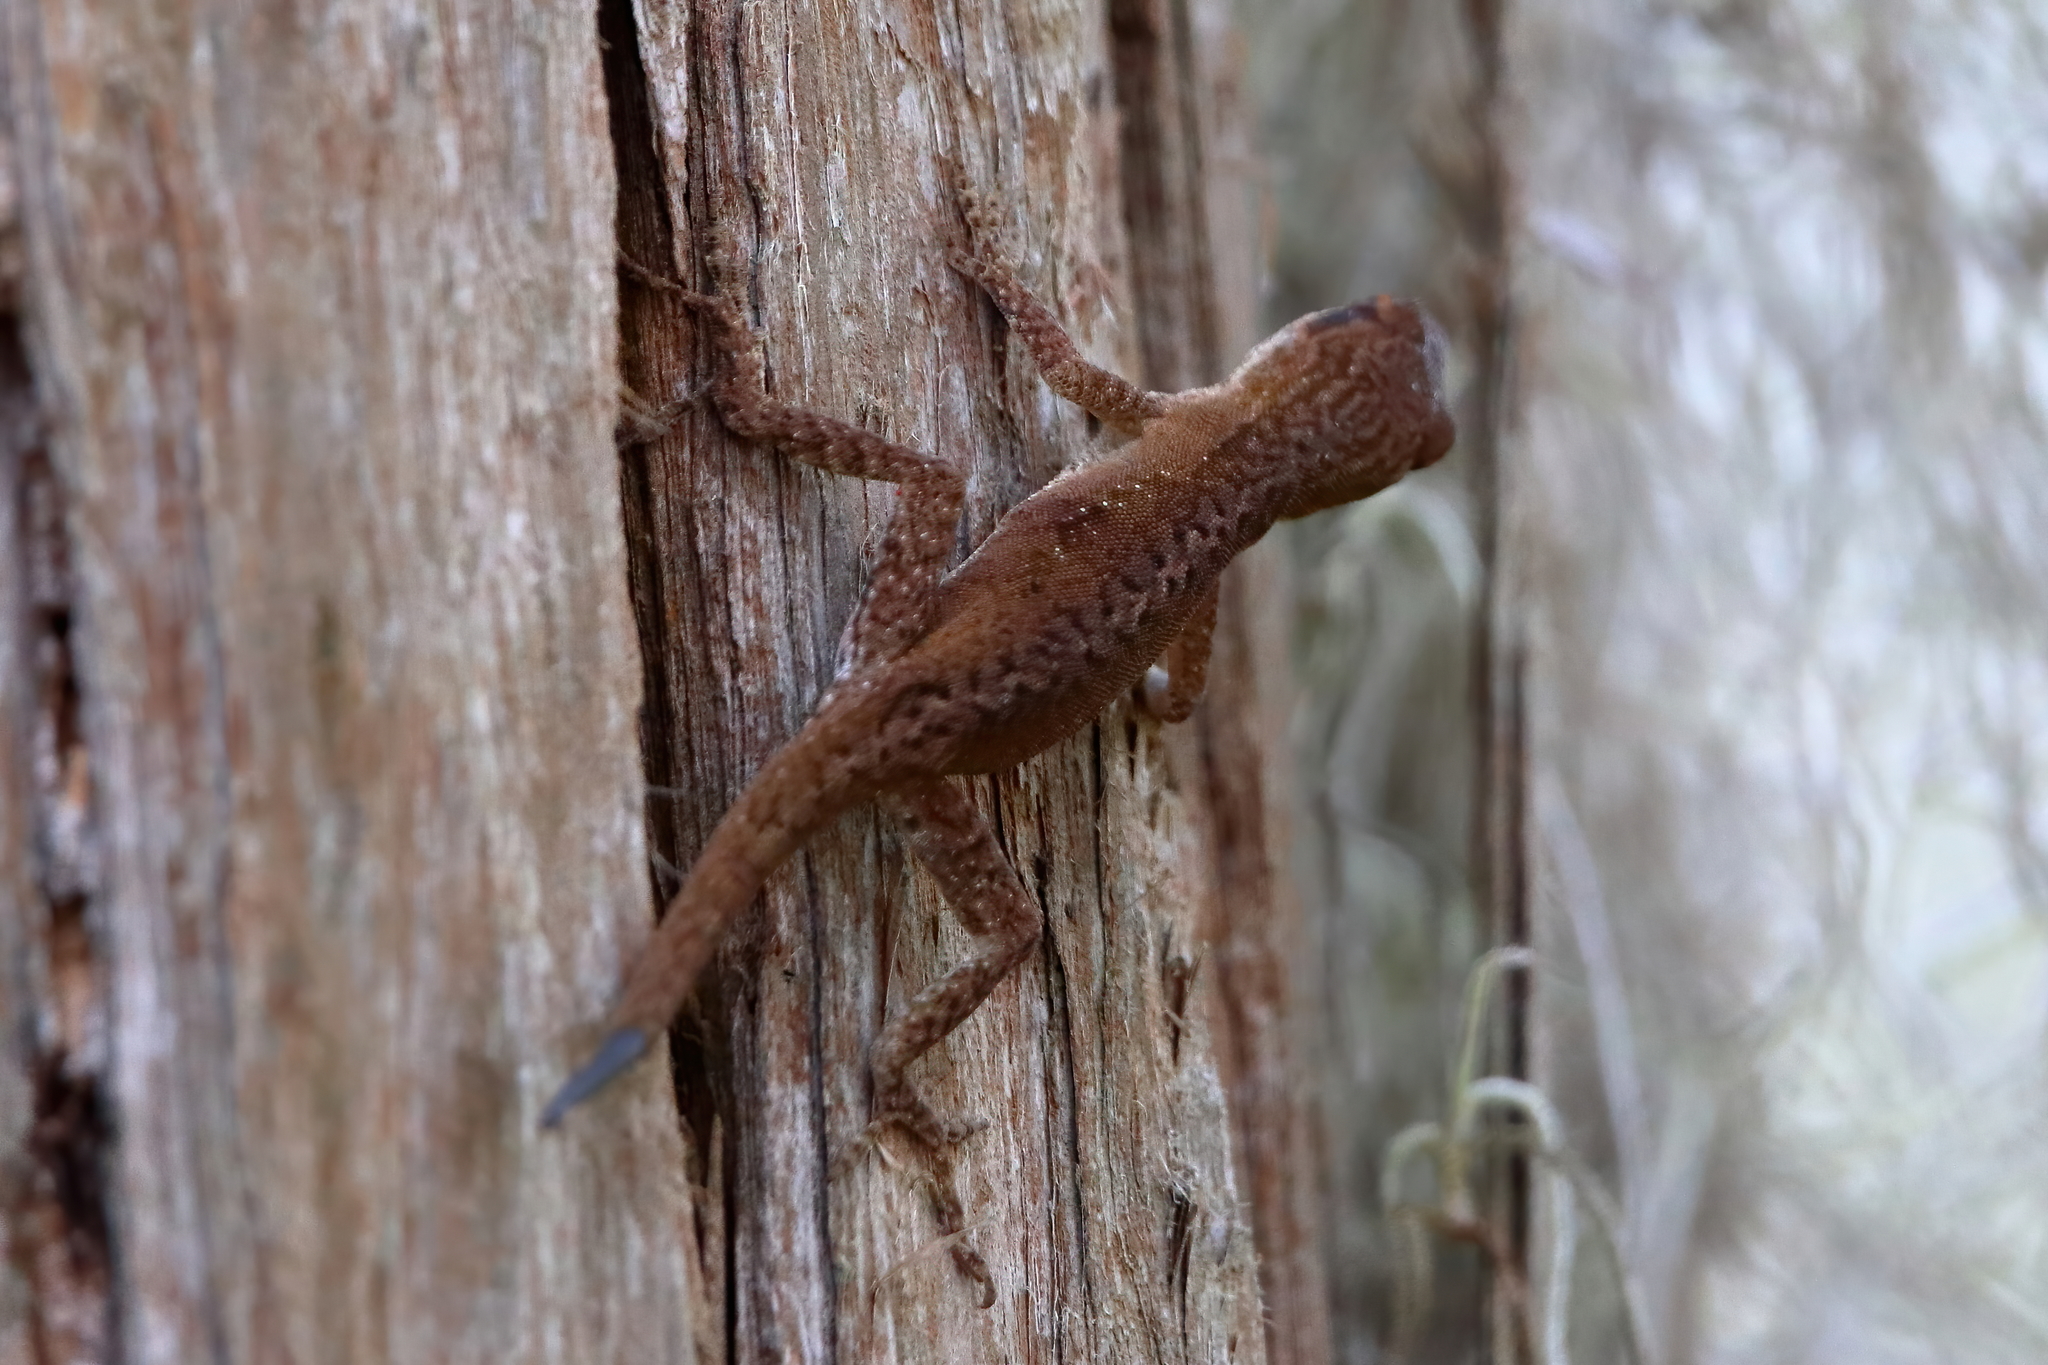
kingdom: Animalia
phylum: Chordata
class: Squamata
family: Dactyloidae
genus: Anolis
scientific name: Anolis carolinensis
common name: Green anole
